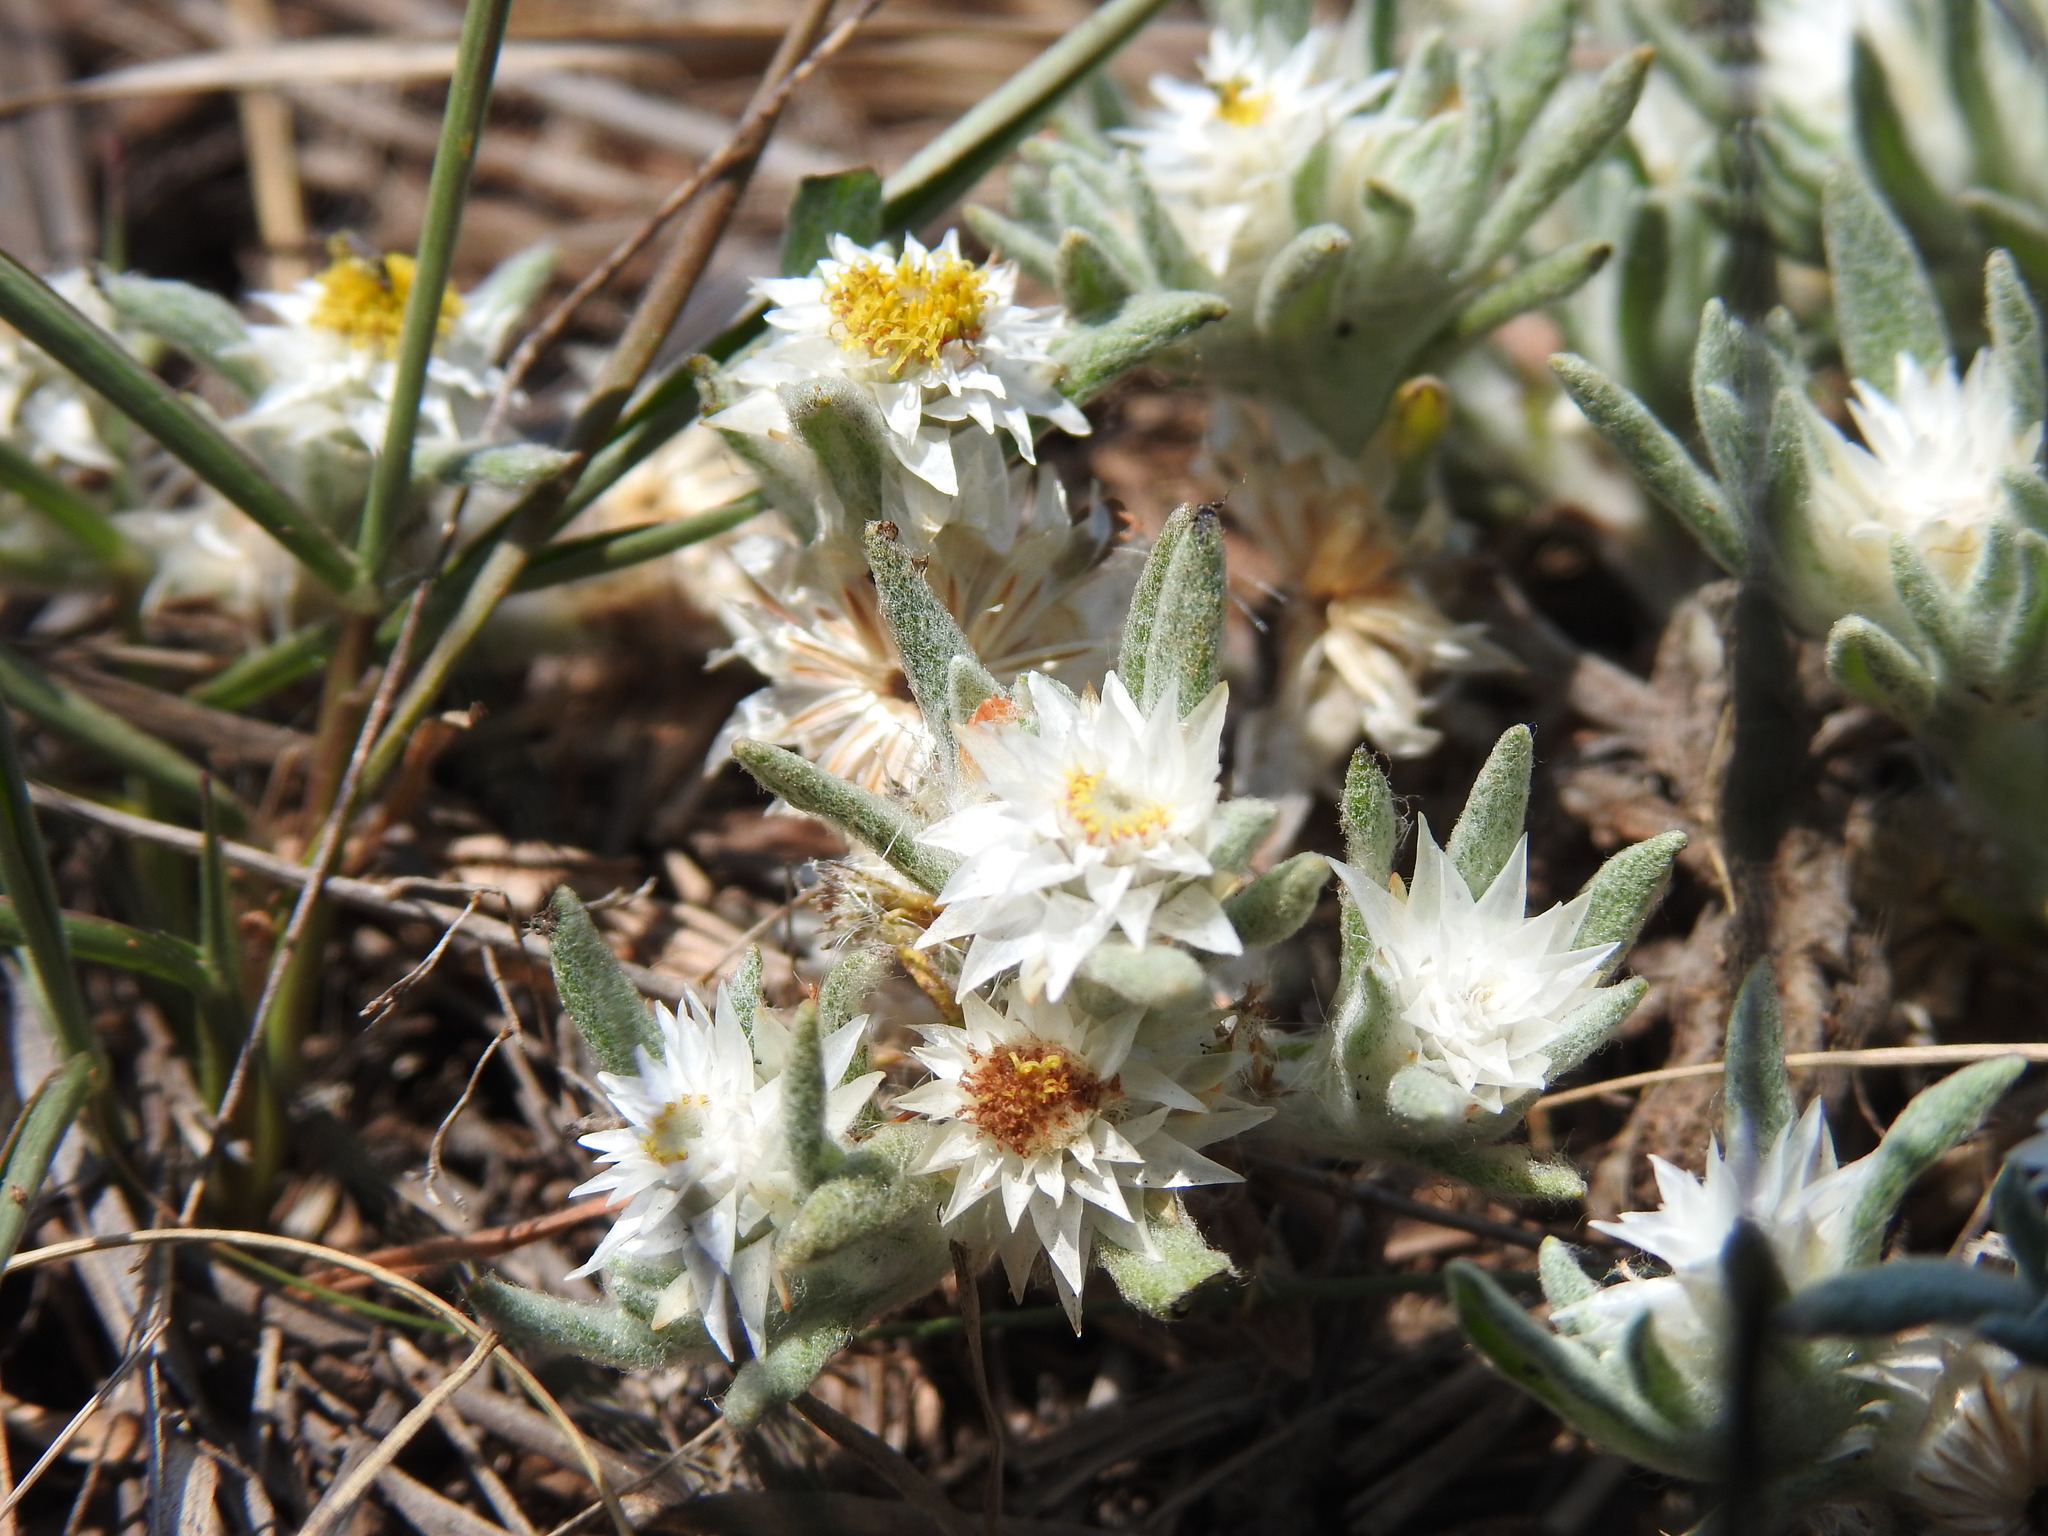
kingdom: Plantae
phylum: Tracheophyta
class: Magnoliopsida
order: Asterales
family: Asteraceae
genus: Helichrysum
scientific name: Helichrysum cerastioides
